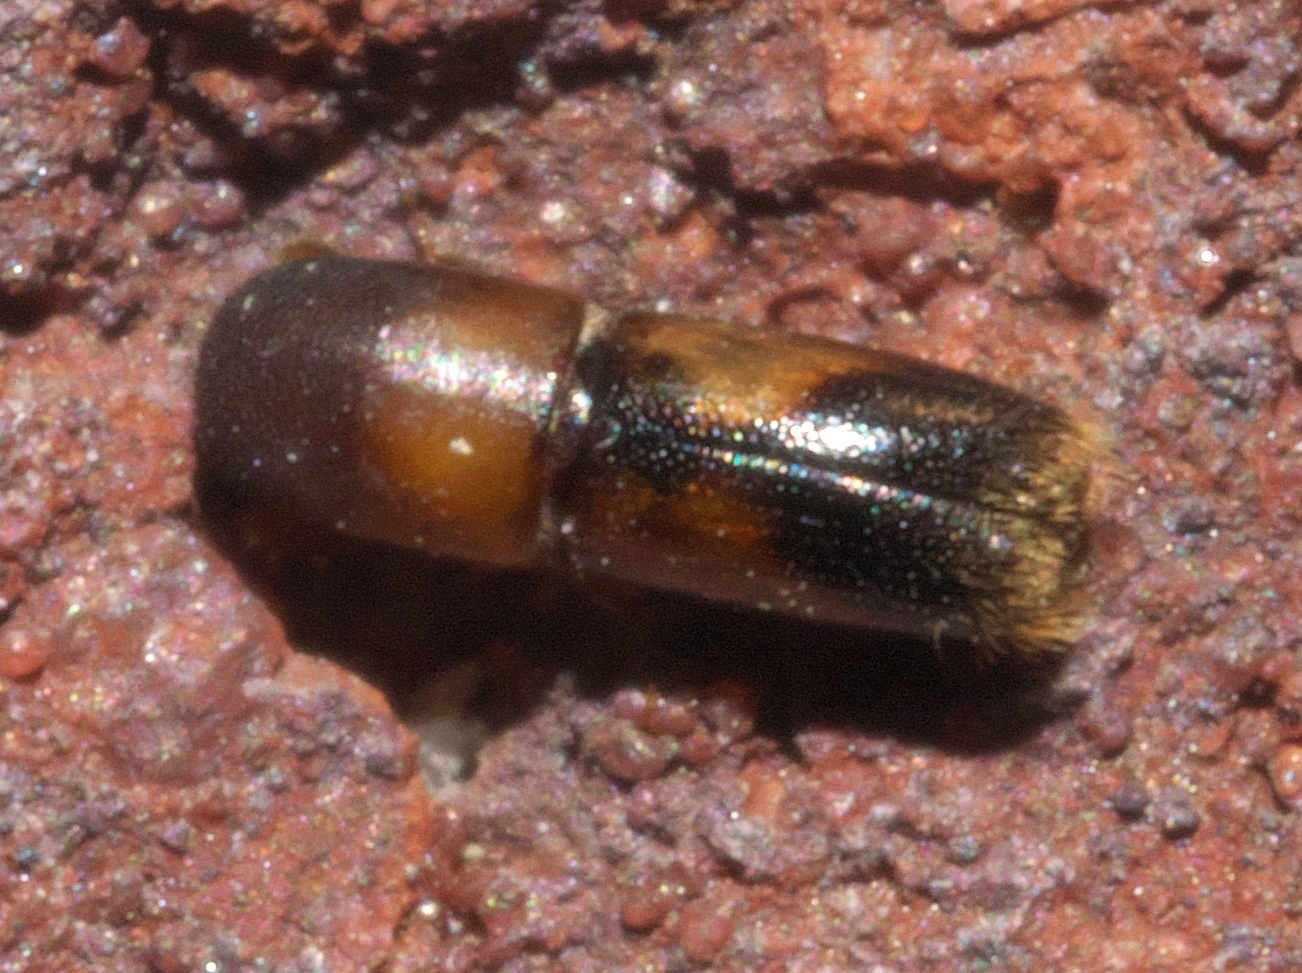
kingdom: Animalia
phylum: Arthropoda
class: Insecta
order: Coleoptera
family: Curculionidae
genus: Monarthrum
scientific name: Monarthrum fasciatum
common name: Yellow-banded timber beetle
